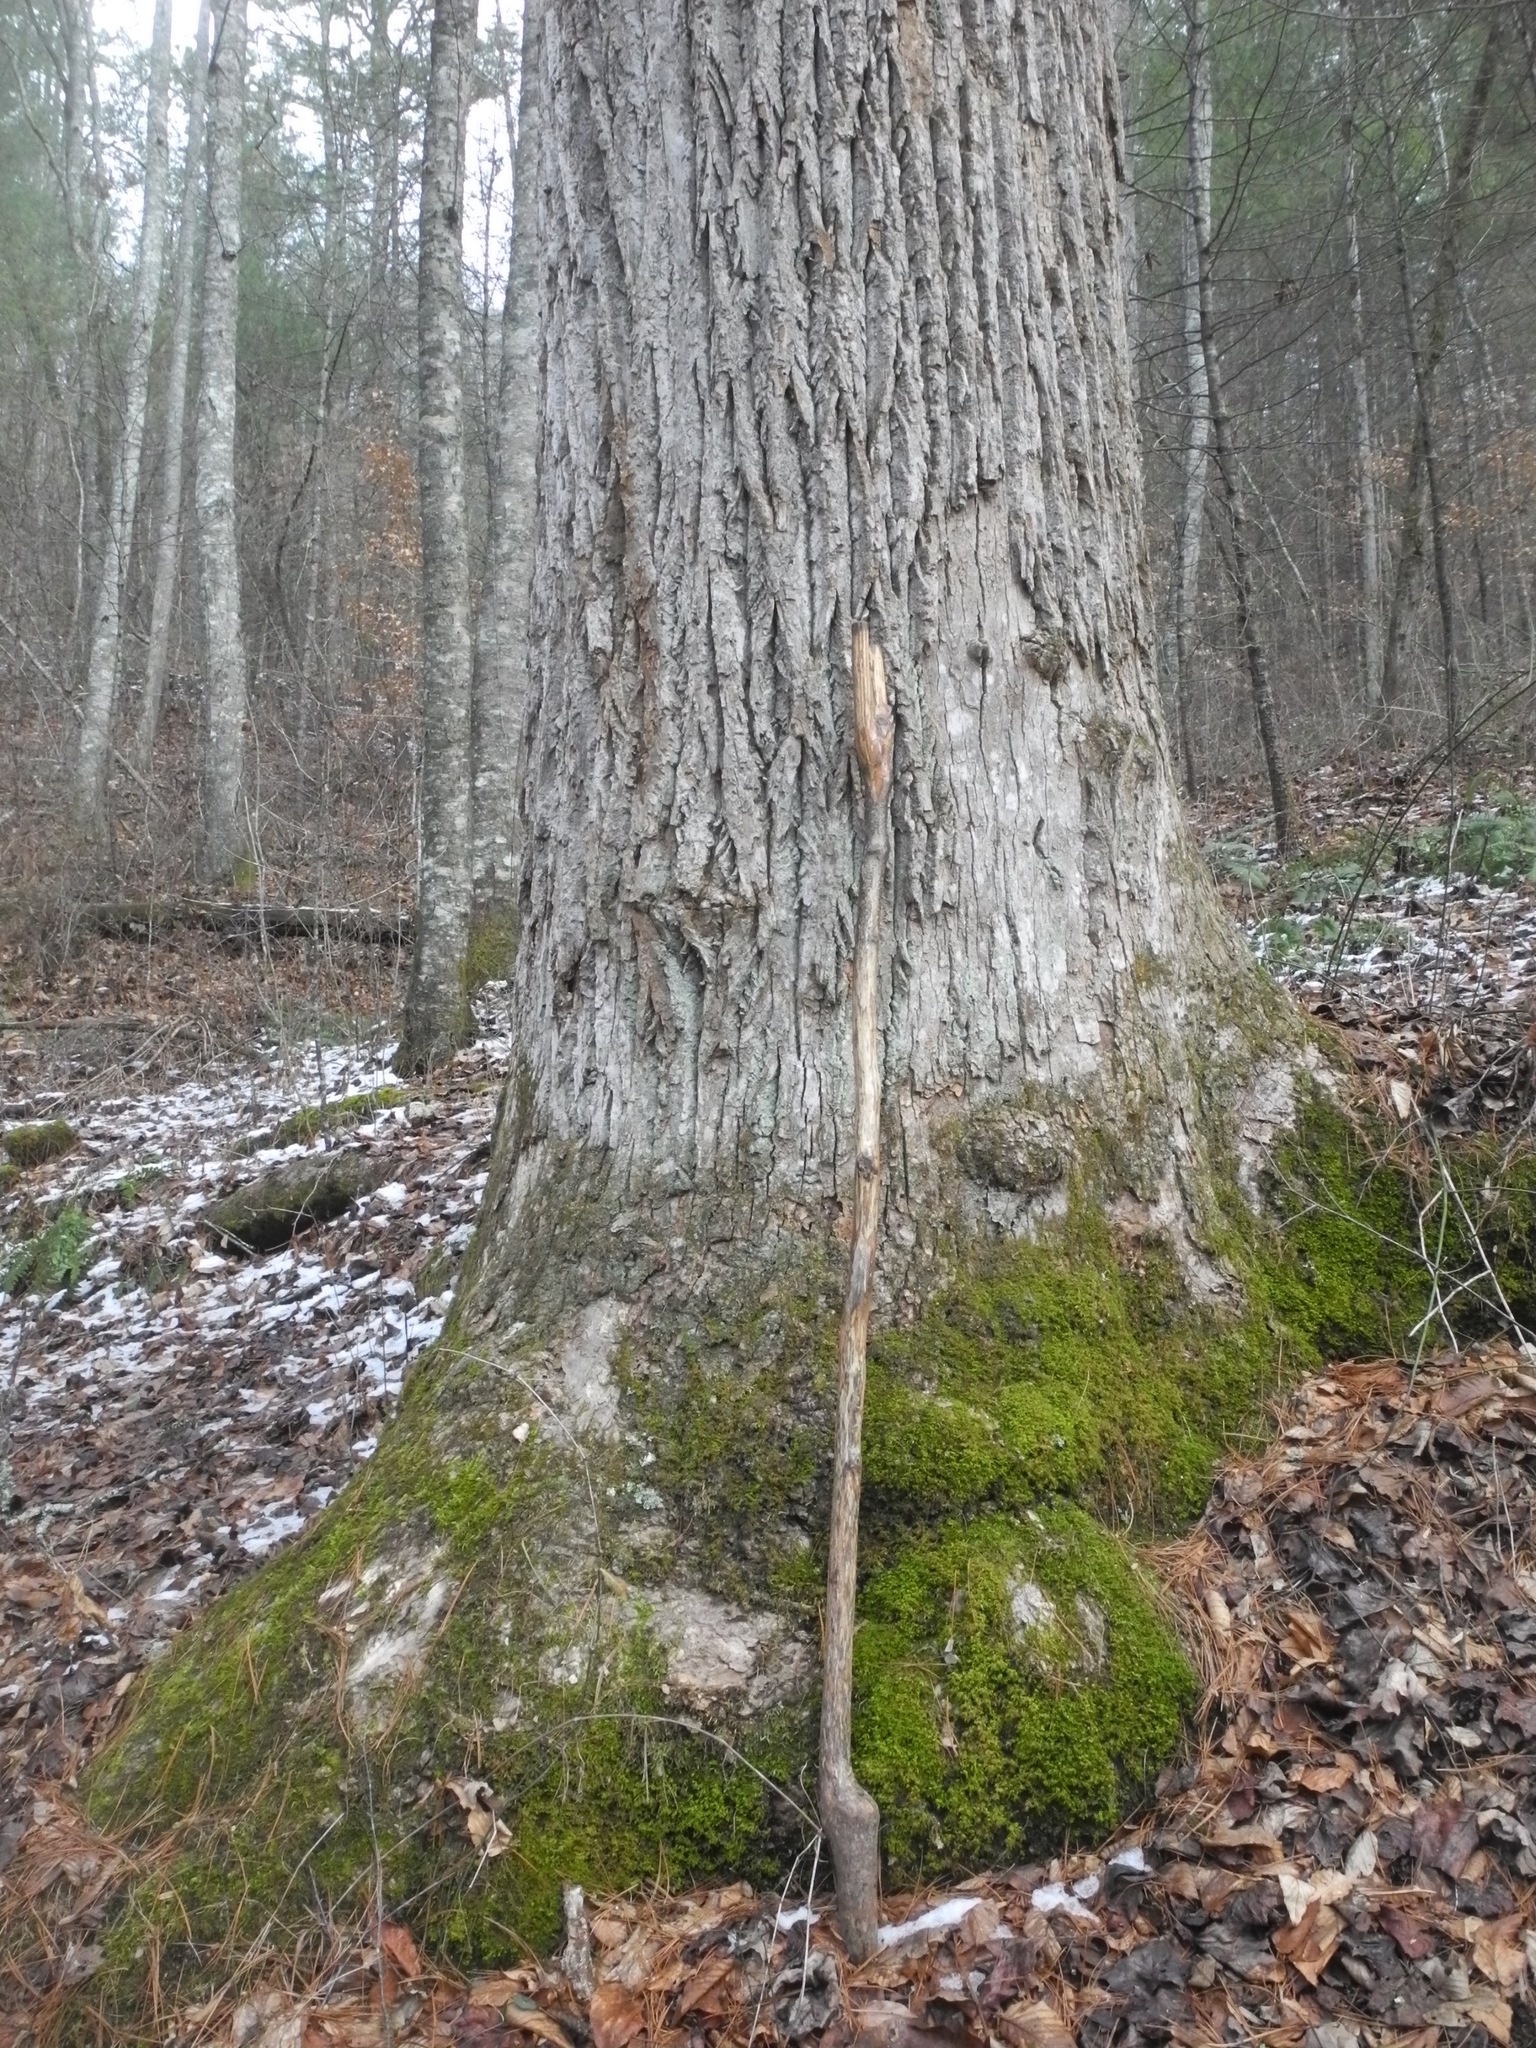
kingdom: Plantae
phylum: Bryophyta
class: Bryopsida
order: Hypnales
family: Neckeraceae
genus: Pseudanomodon
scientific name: Pseudanomodon attenuatus
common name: Tree-skirt moss
